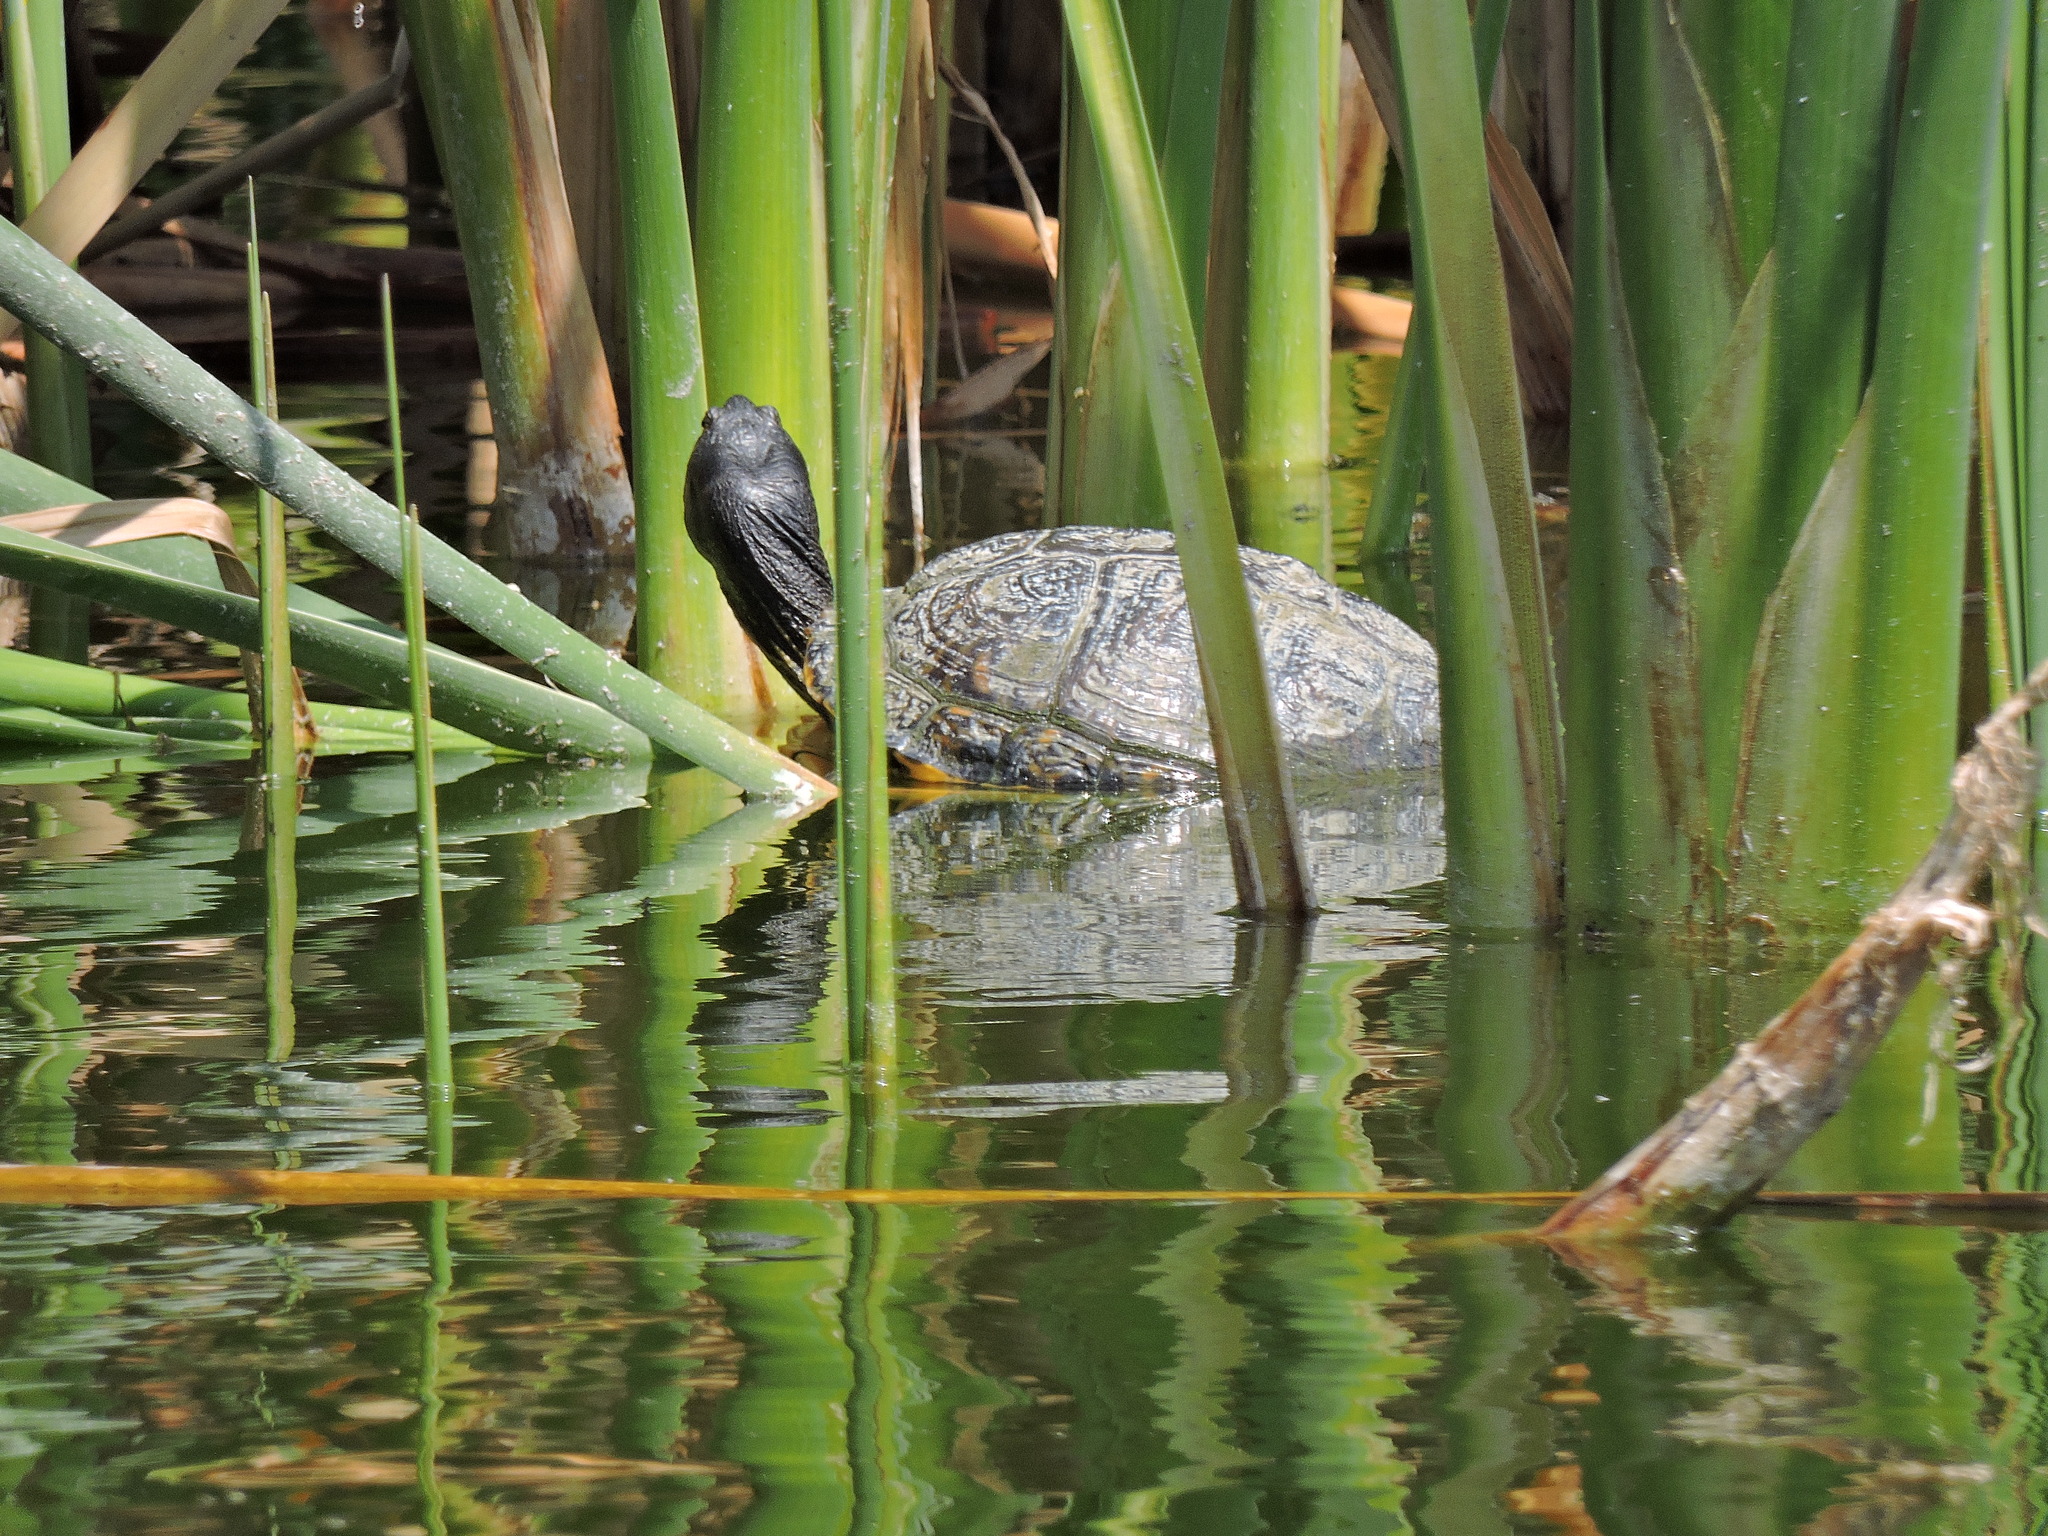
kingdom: Animalia
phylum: Chordata
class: Testudines
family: Emydidae
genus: Trachemys
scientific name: Trachemys scripta
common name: Slider
